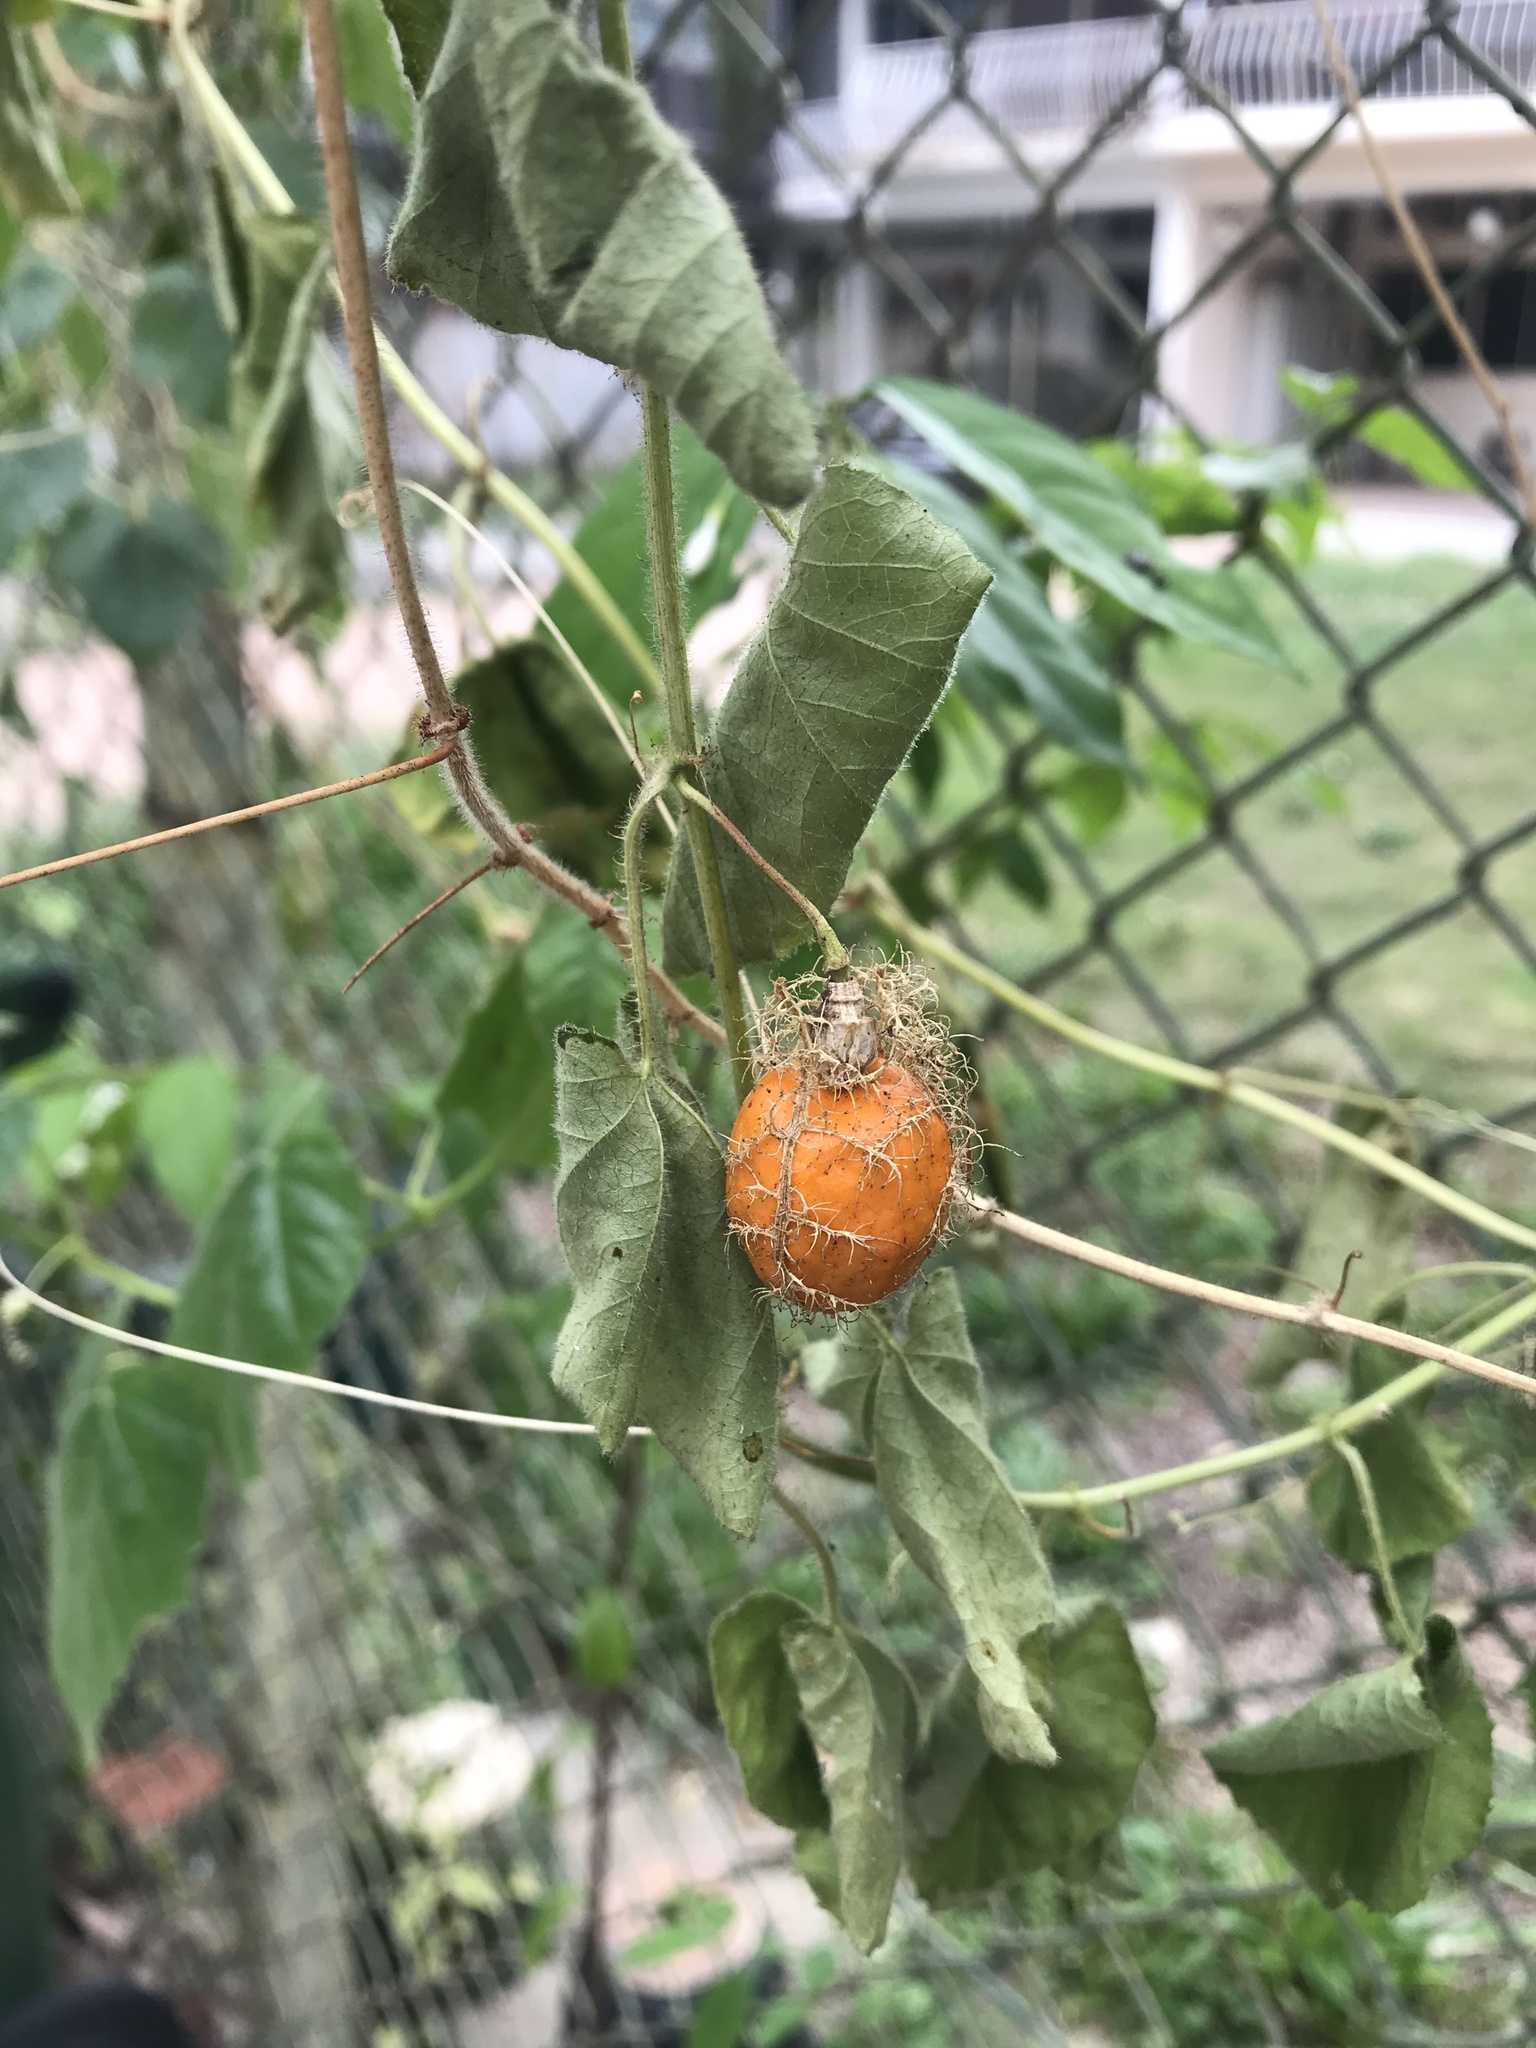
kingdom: Plantae
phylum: Tracheophyta
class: Magnoliopsida
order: Malpighiales
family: Passifloraceae
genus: Passiflora
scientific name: Passiflora foetida
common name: Fetid passionflower
